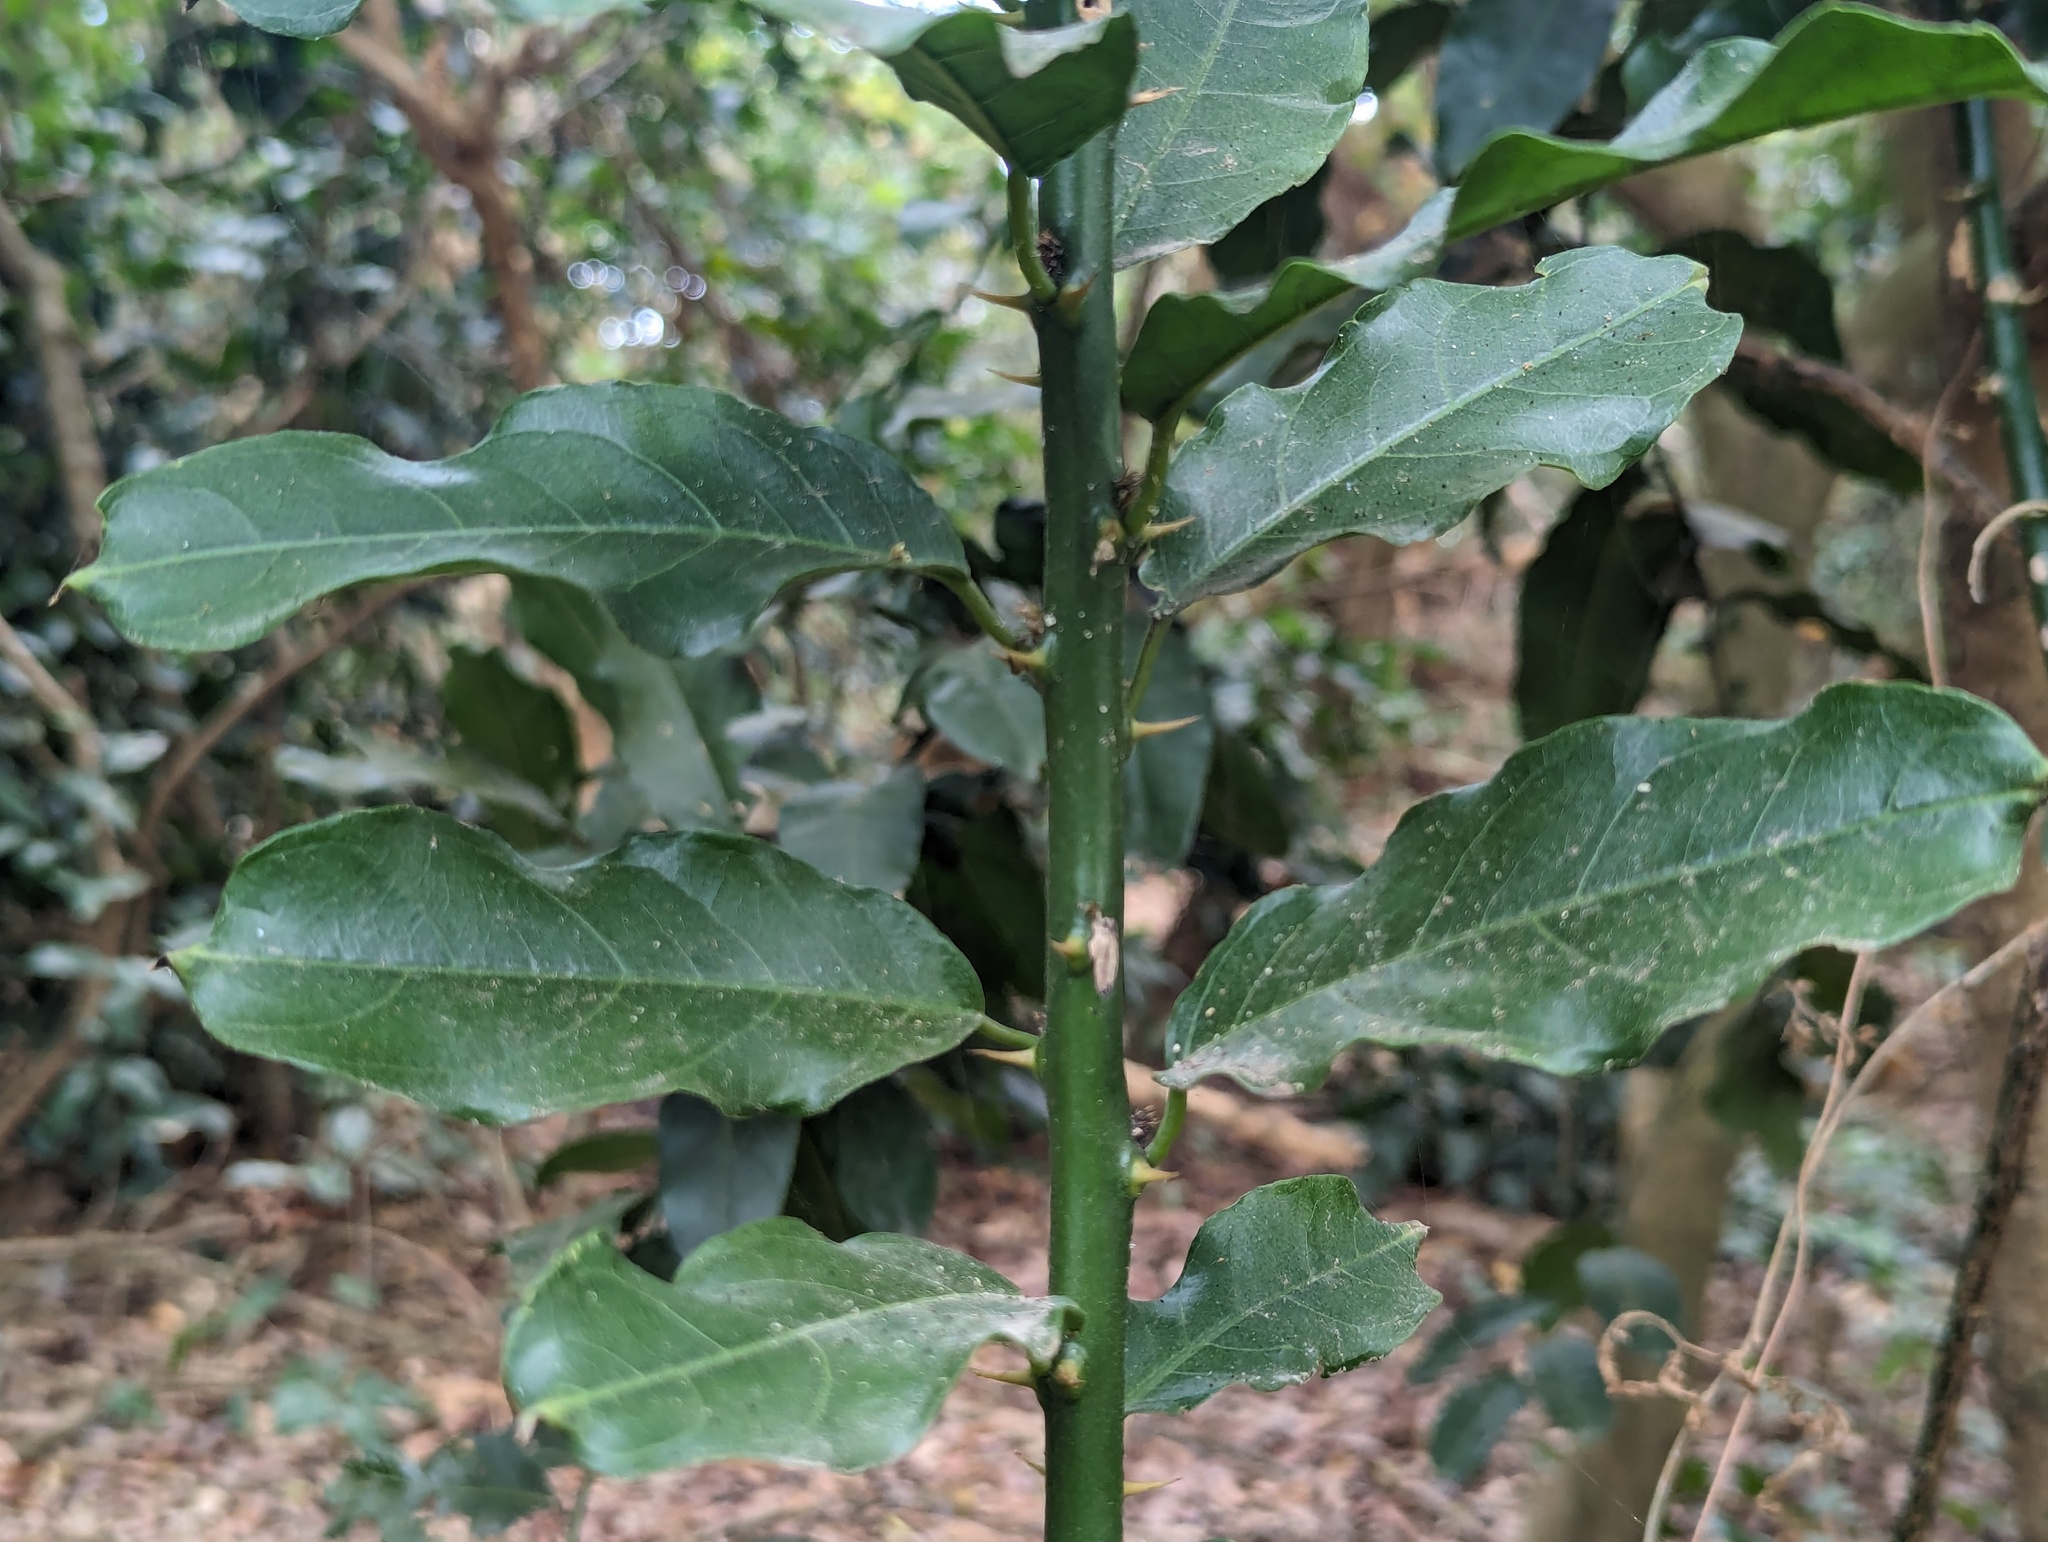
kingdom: Plantae
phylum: Tracheophyta
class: Magnoliopsida
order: Brassicales
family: Capparaceae
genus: Capparis
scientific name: Capparis henryi
